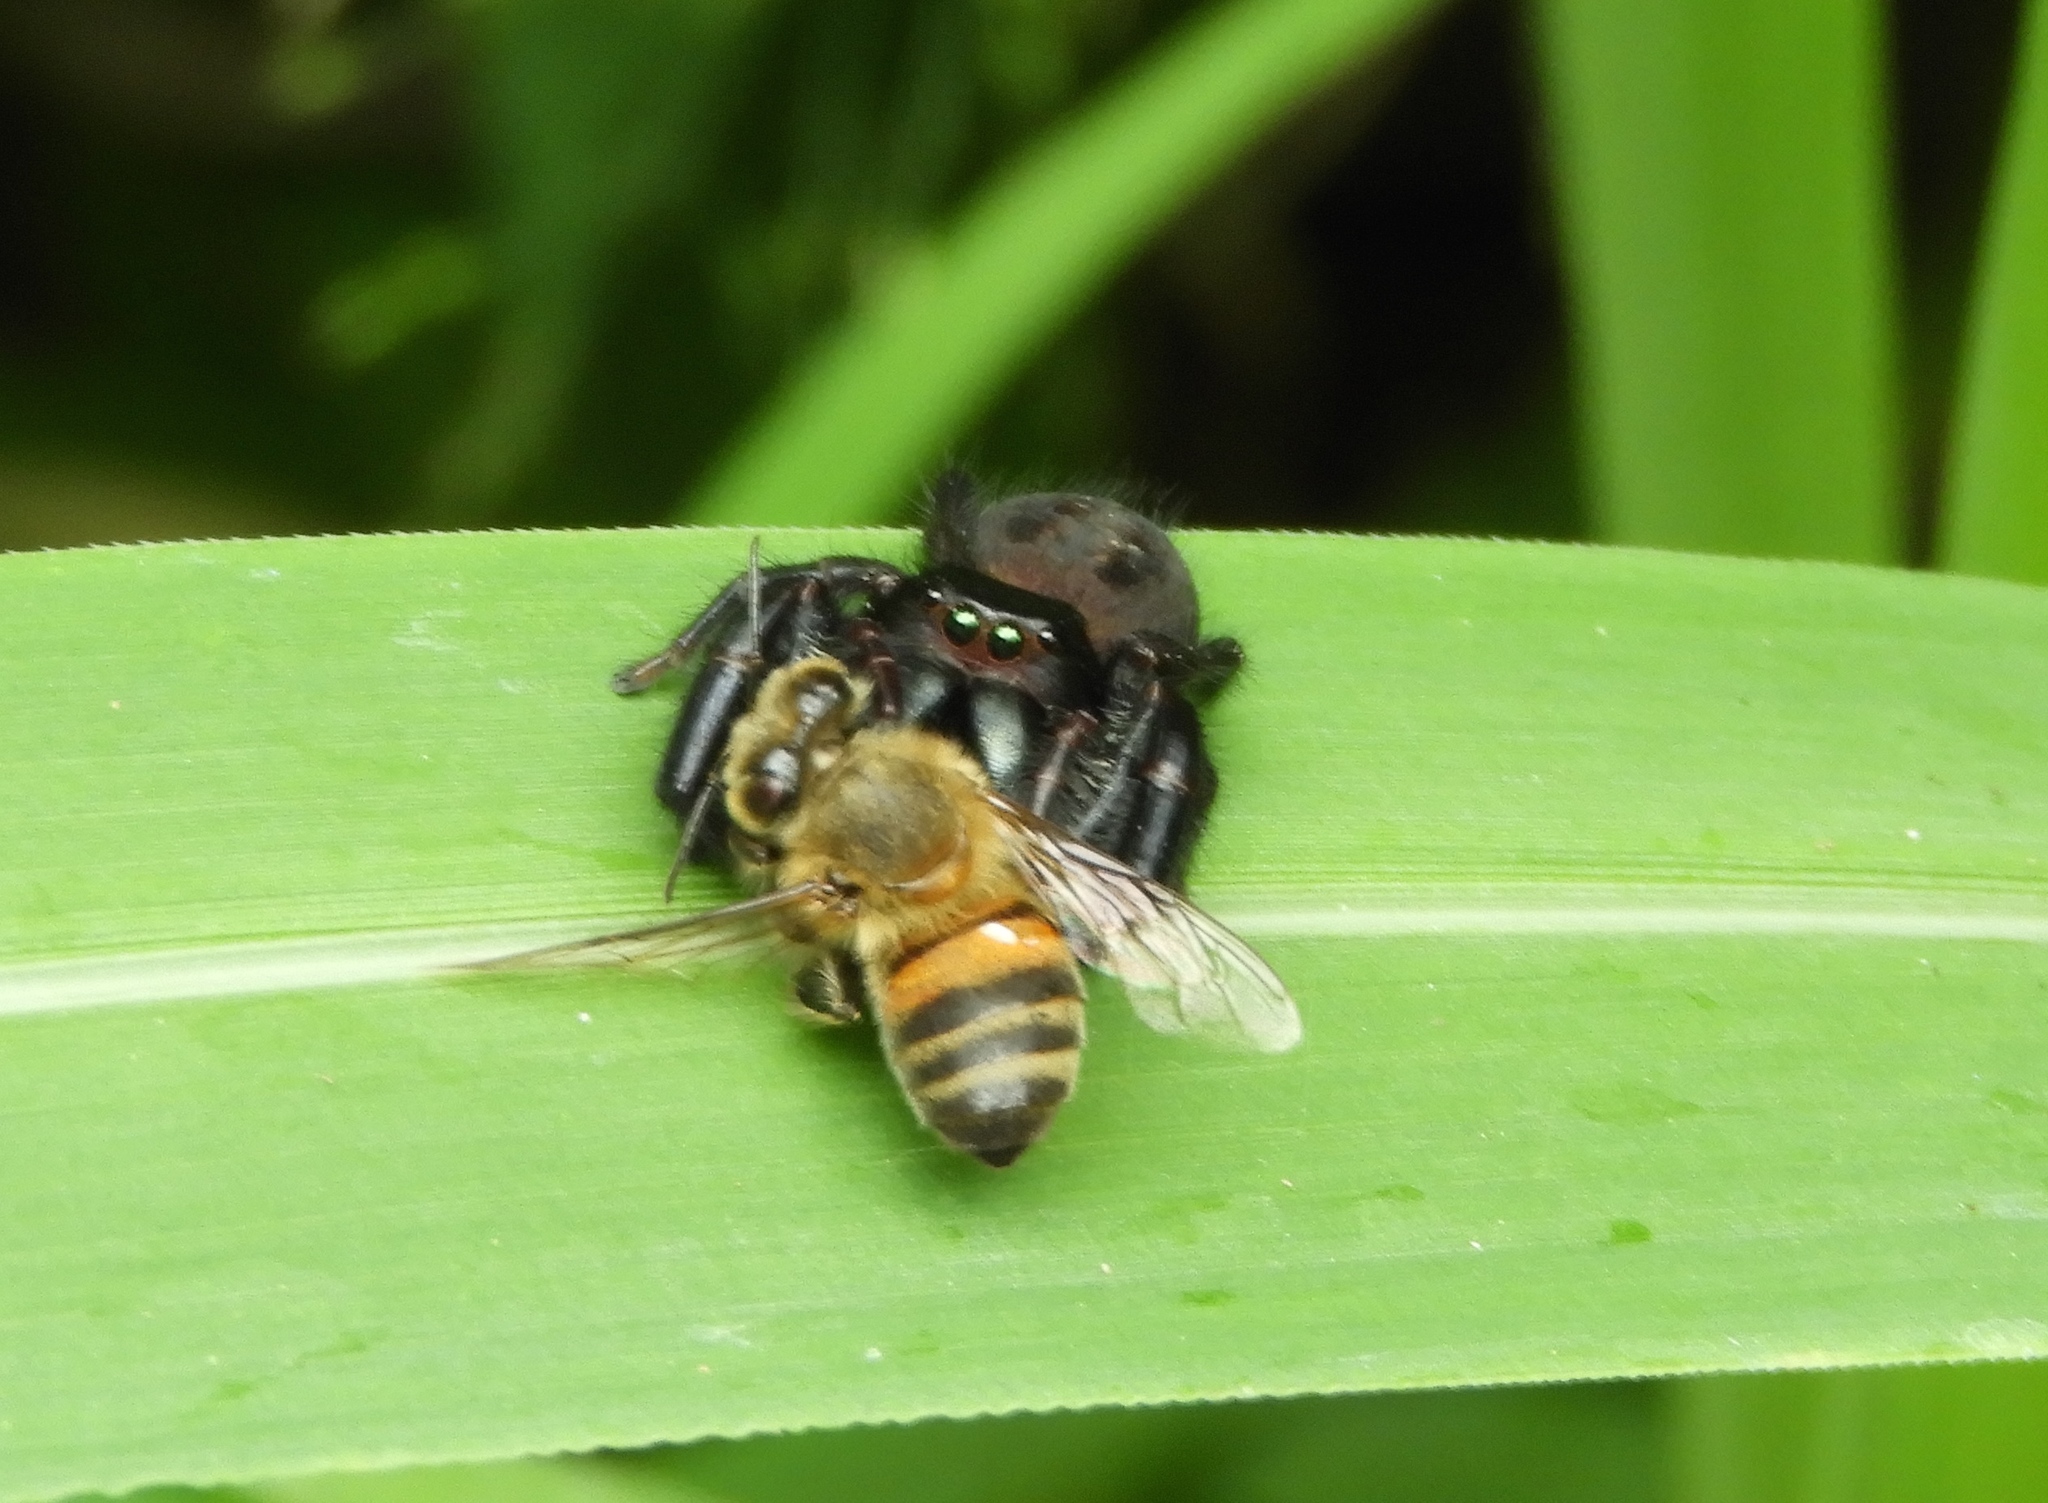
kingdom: Animalia
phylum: Arthropoda
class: Arachnida
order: Araneae
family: Salticidae
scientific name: Salticidae
